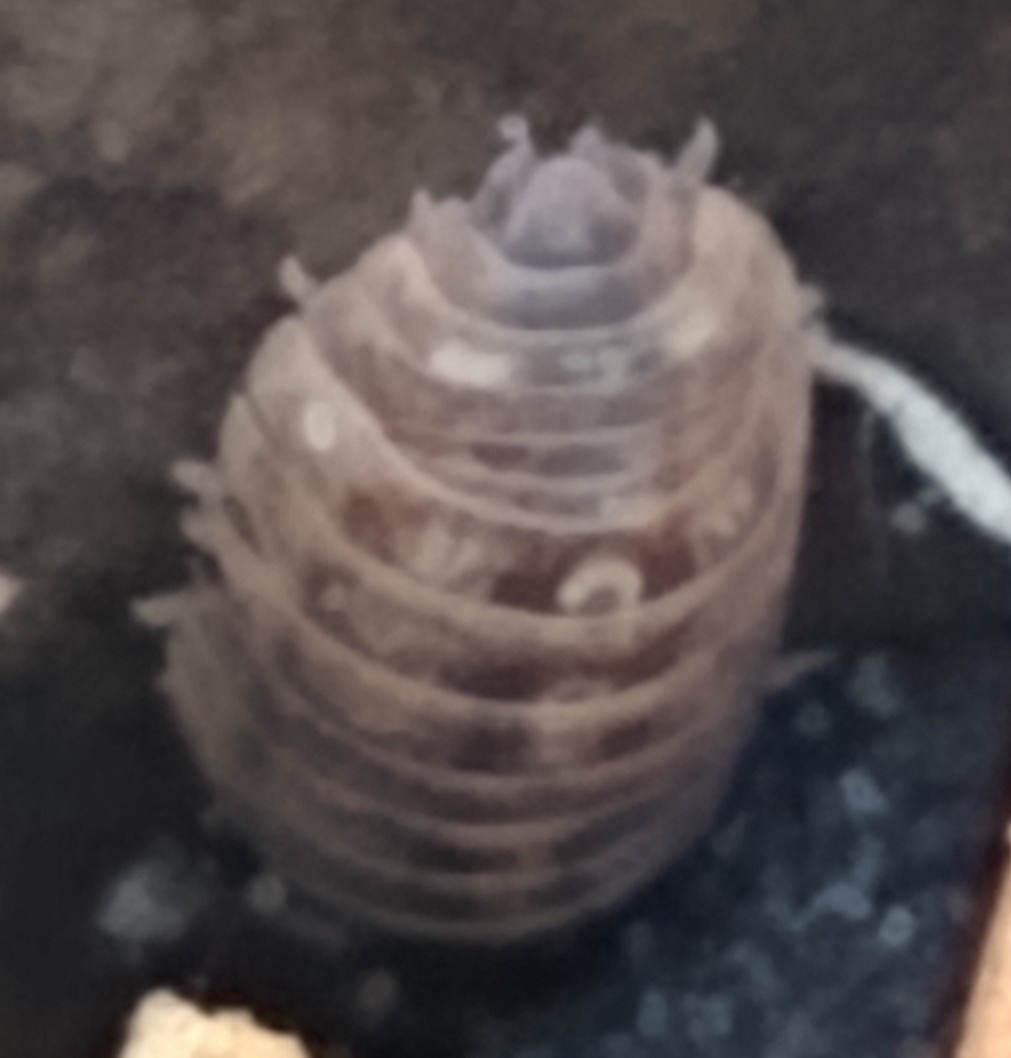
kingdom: Animalia
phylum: Arthropoda
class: Malacostraca
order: Isopoda
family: Armadillidiidae
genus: Armadillidium
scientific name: Armadillidium vulgare
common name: Common pill woodlouse
